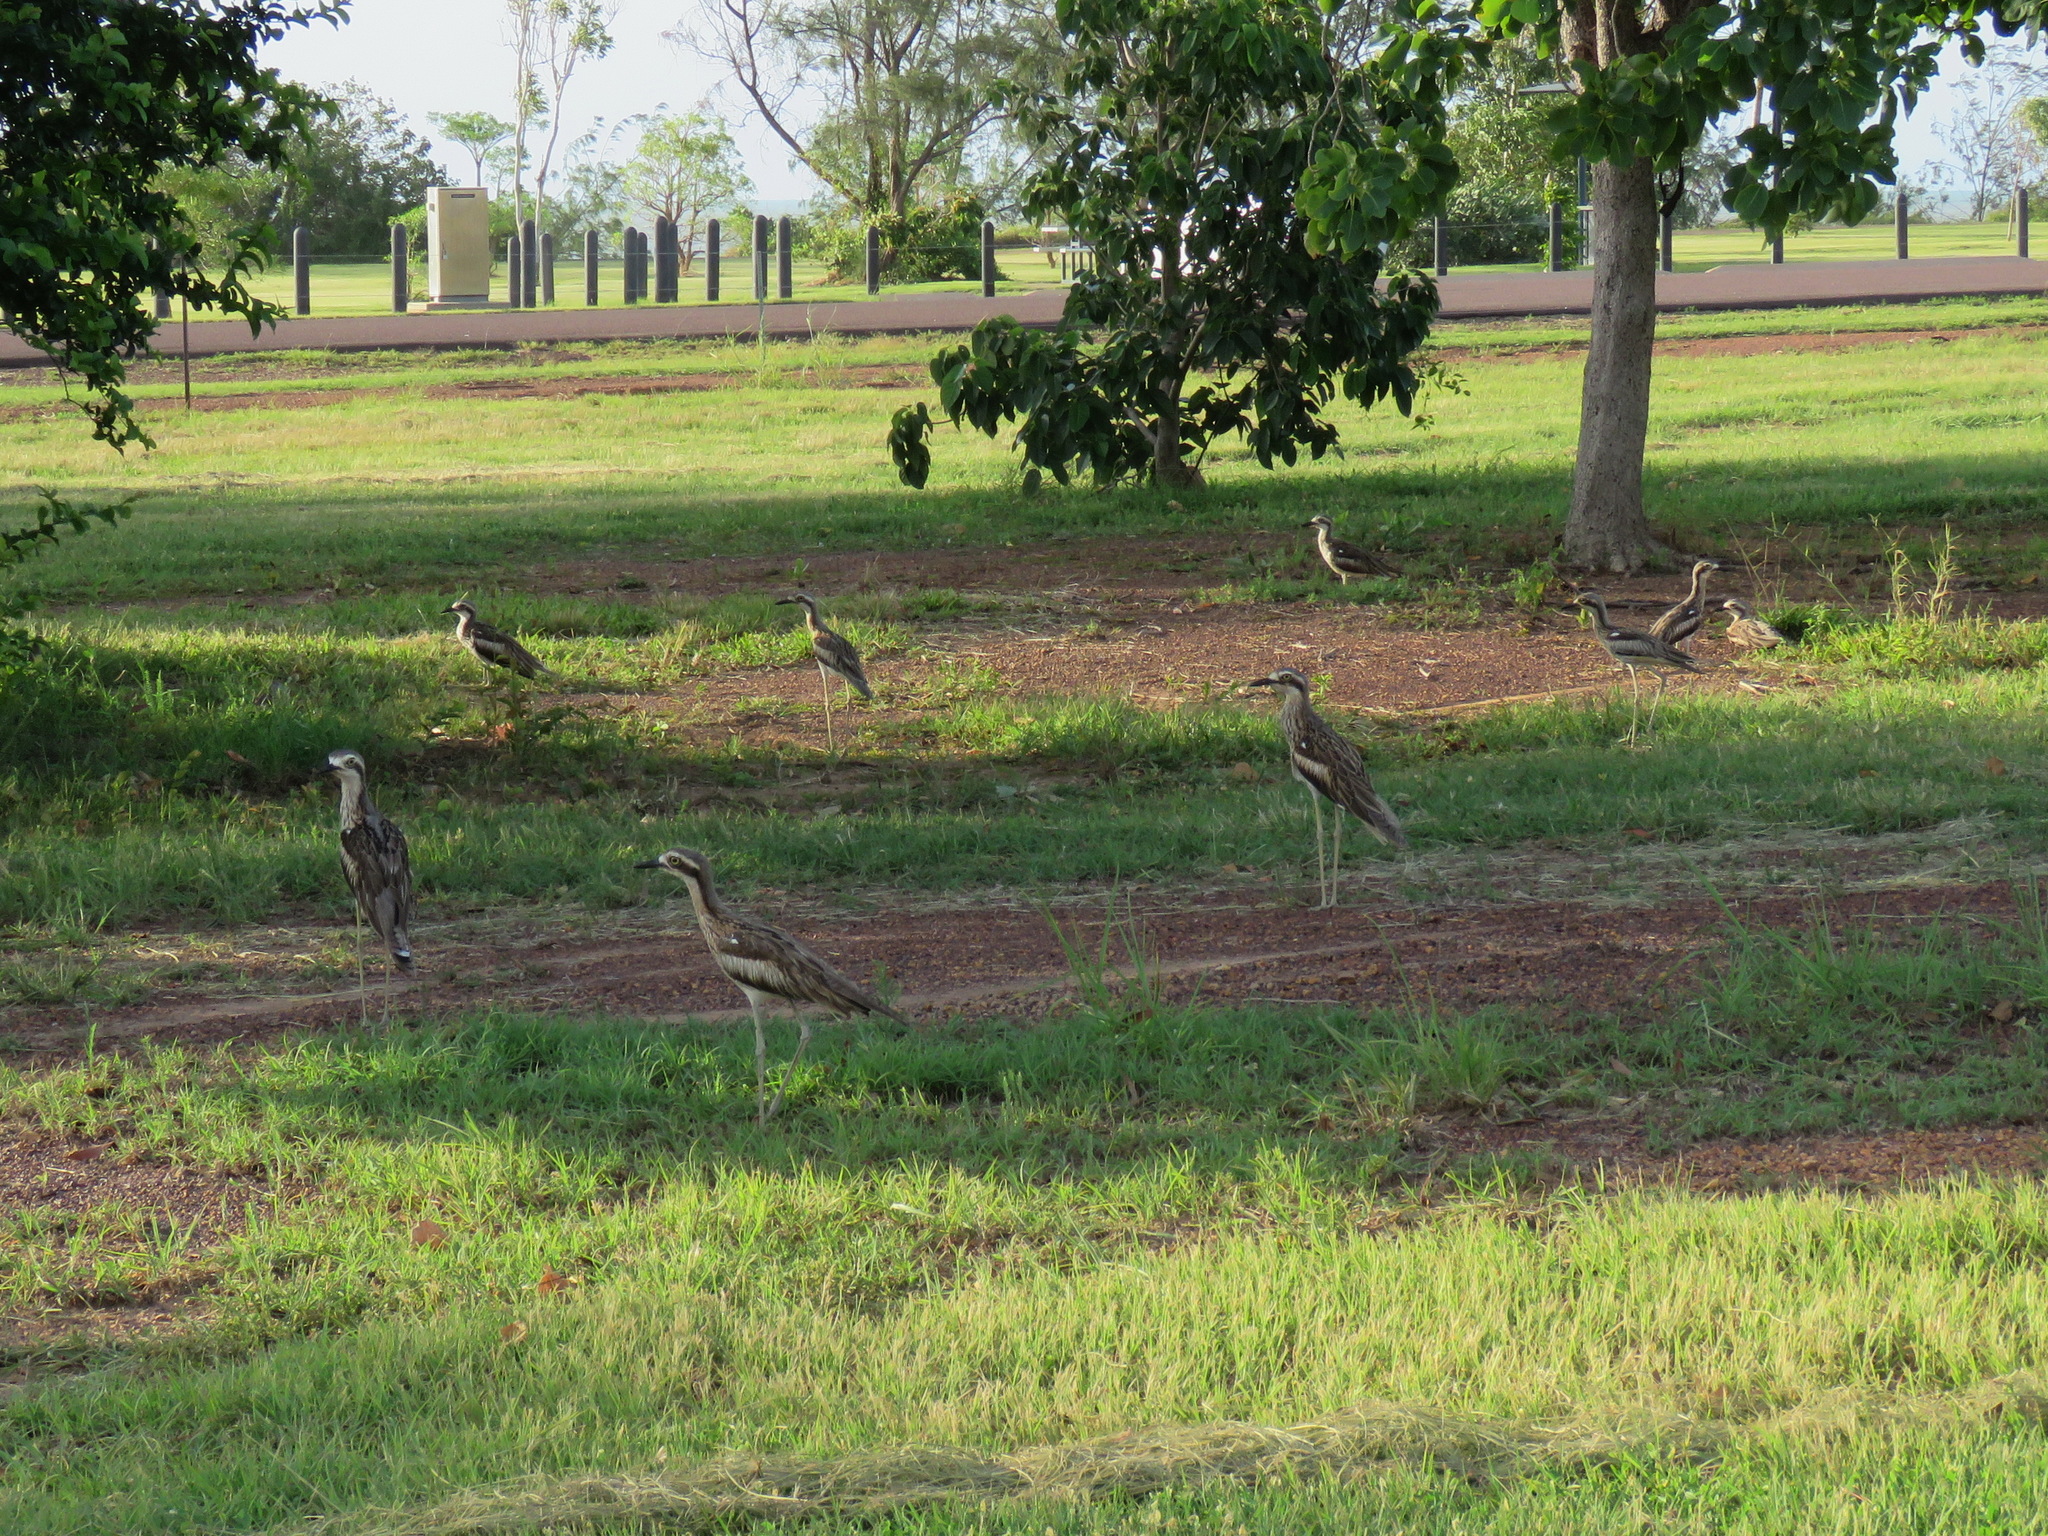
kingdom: Animalia
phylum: Chordata
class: Aves
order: Charadriiformes
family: Burhinidae
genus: Burhinus
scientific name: Burhinus grallarius
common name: Bush stone-curlew
